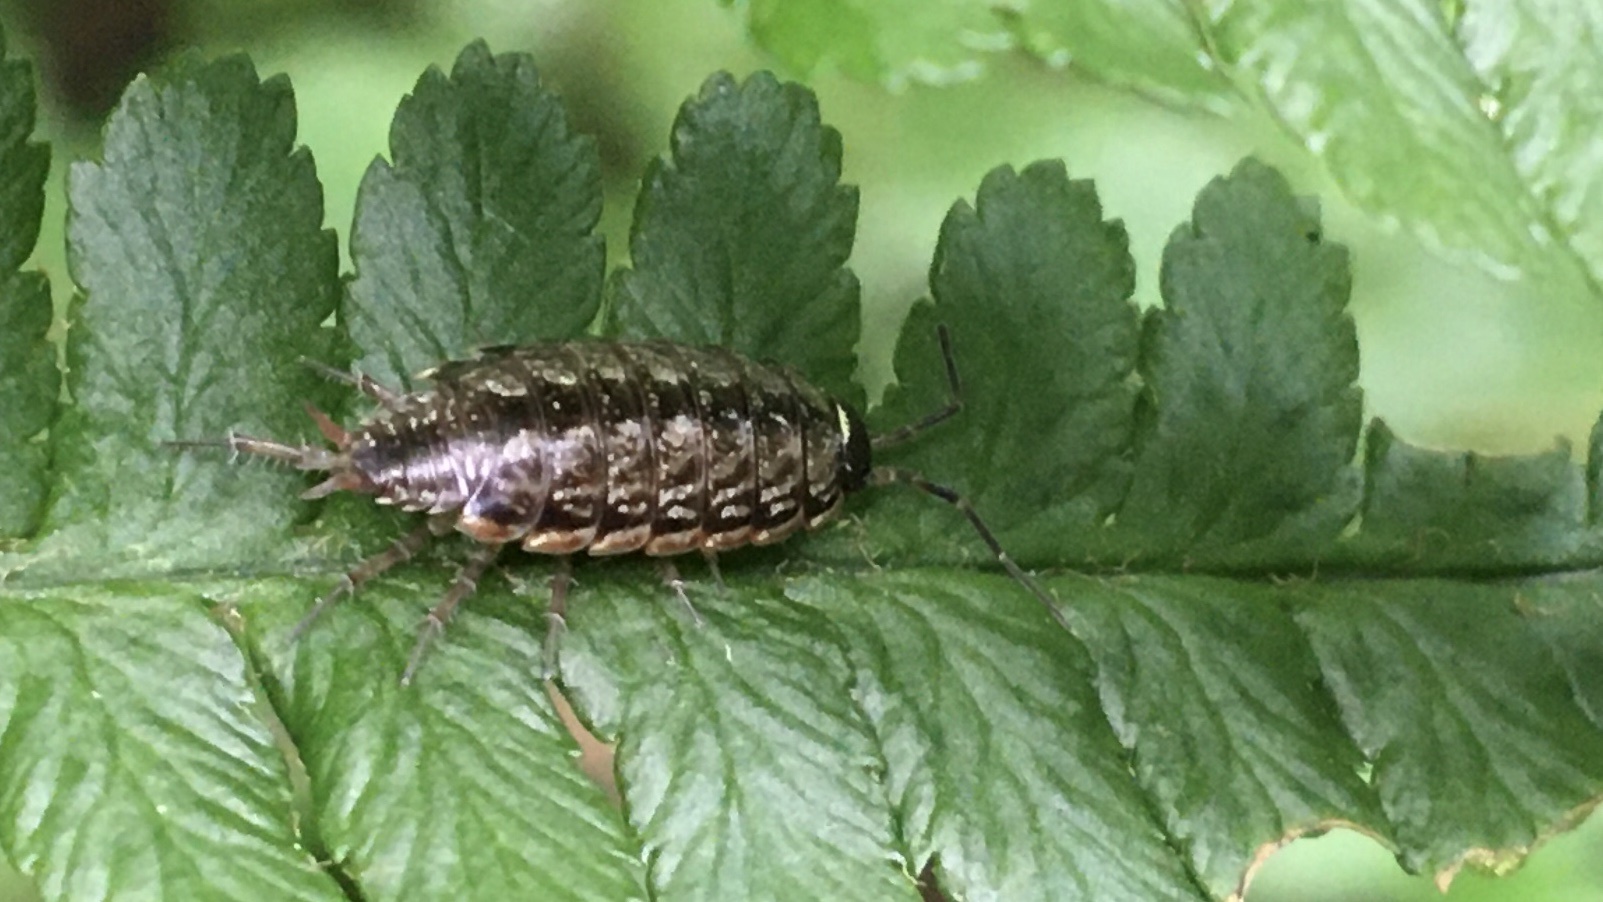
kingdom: Animalia
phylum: Arthropoda
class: Malacostraca
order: Isopoda
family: Philosciidae
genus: Philoscia
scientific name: Philoscia muscorum
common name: Common striped woodlouse
